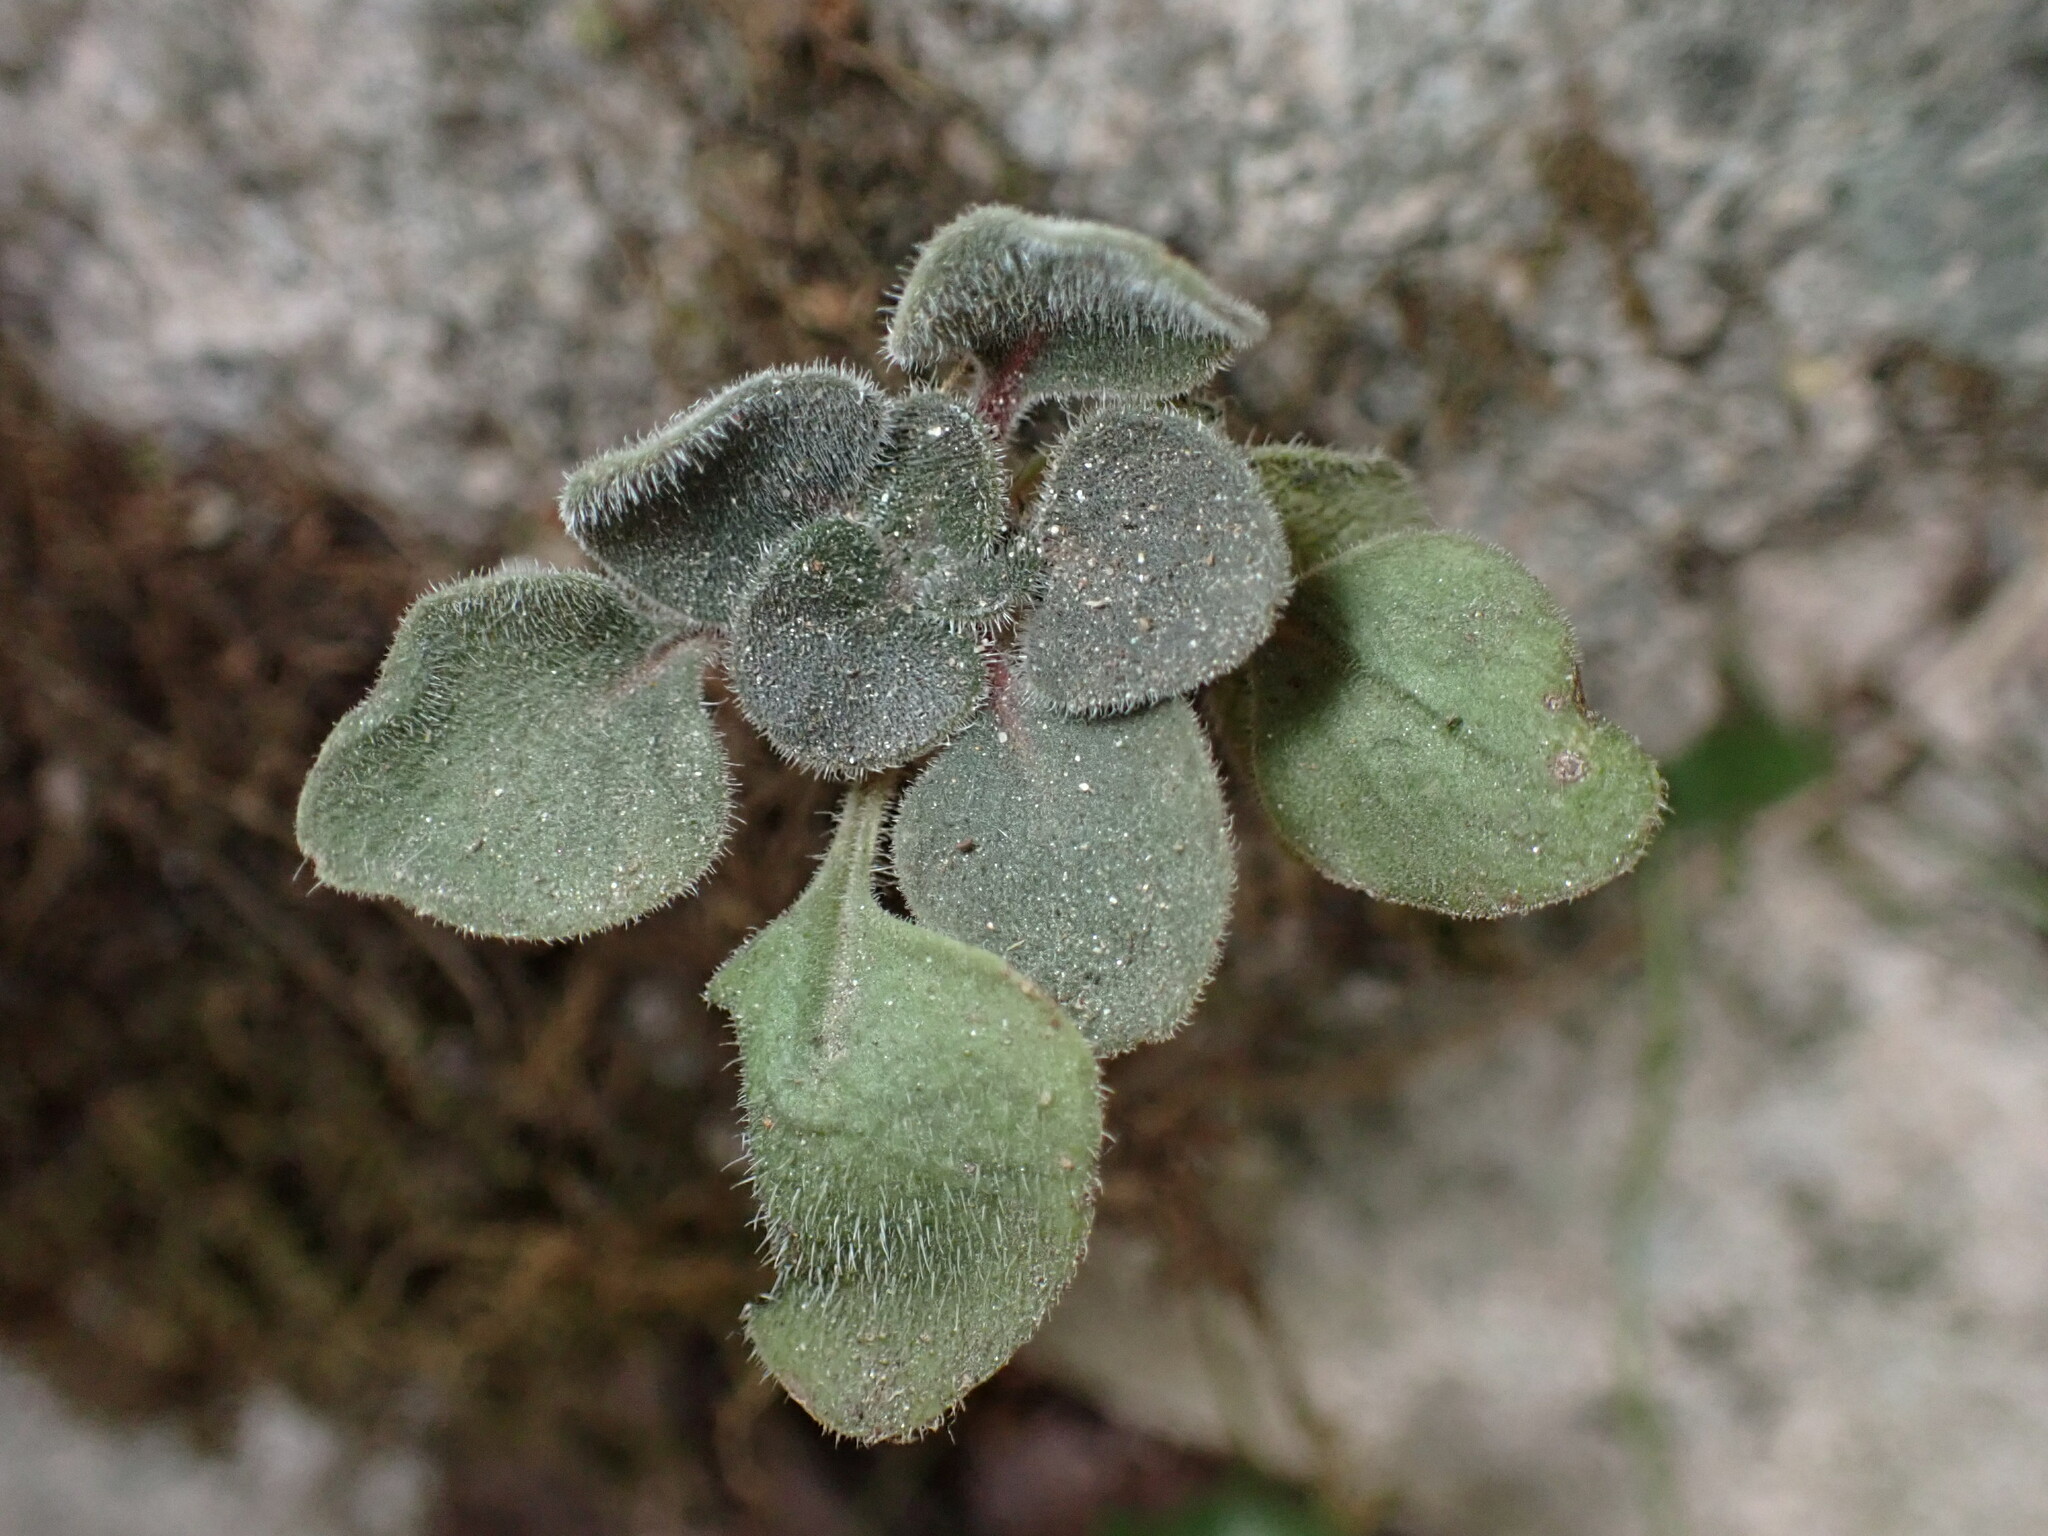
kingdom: Plantae
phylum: Tracheophyta
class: Magnoliopsida
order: Saxifragales
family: Crassulaceae
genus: Aichryson
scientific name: Aichryson laxum
